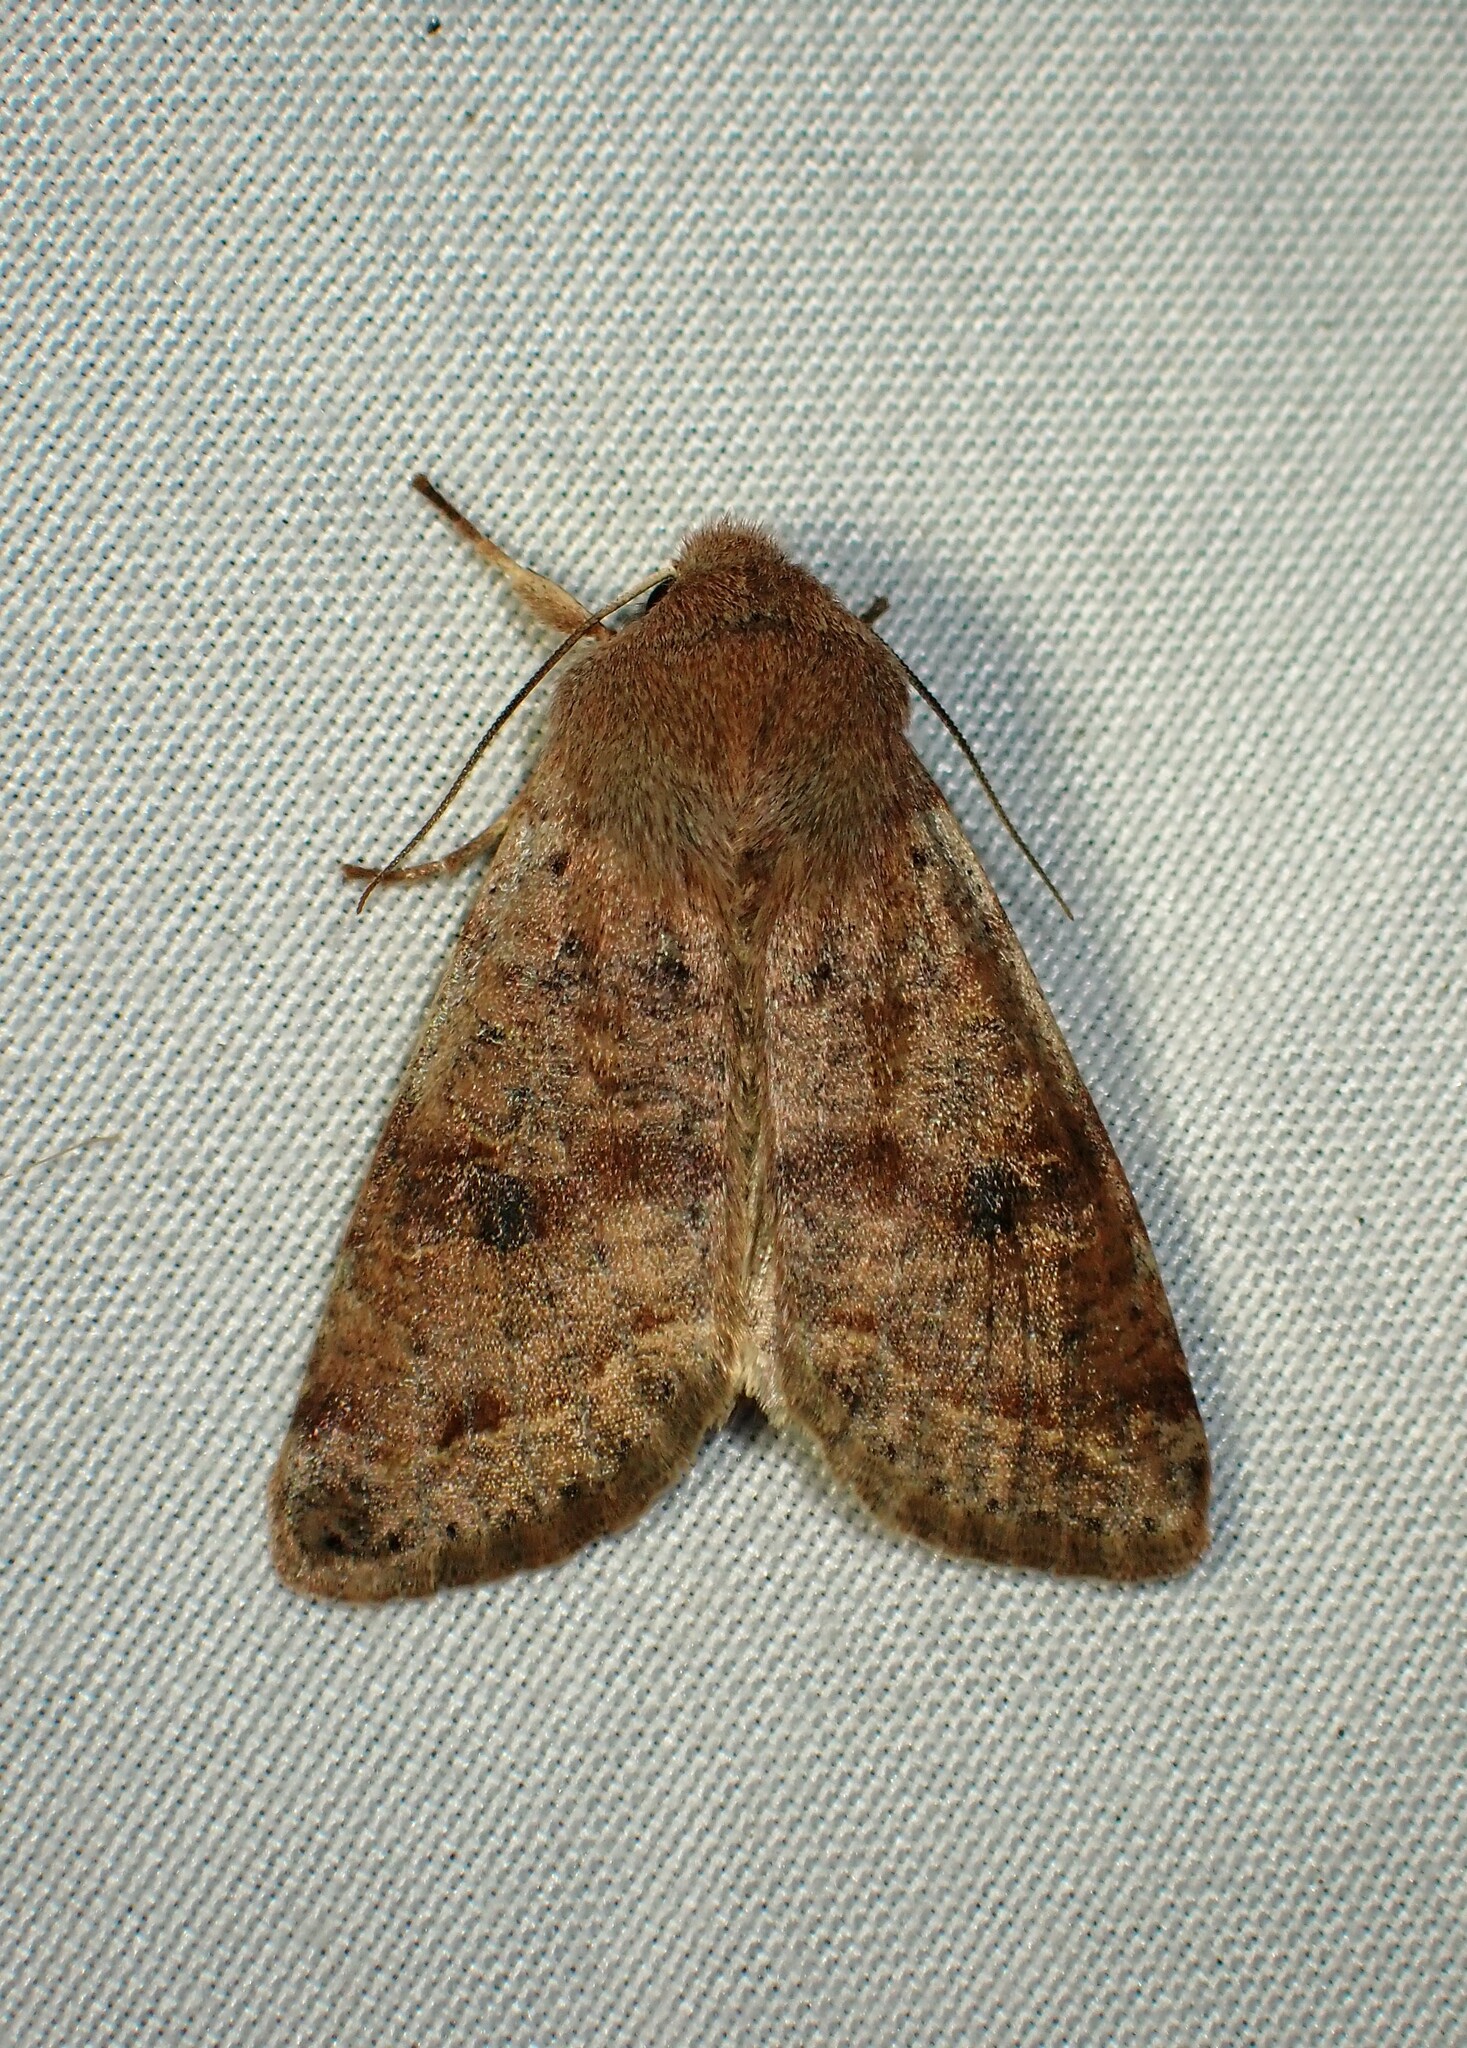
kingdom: Animalia
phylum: Arthropoda
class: Insecta
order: Lepidoptera
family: Noctuidae
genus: Orthosia
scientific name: Orthosia hibisci
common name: Green fruitworm
